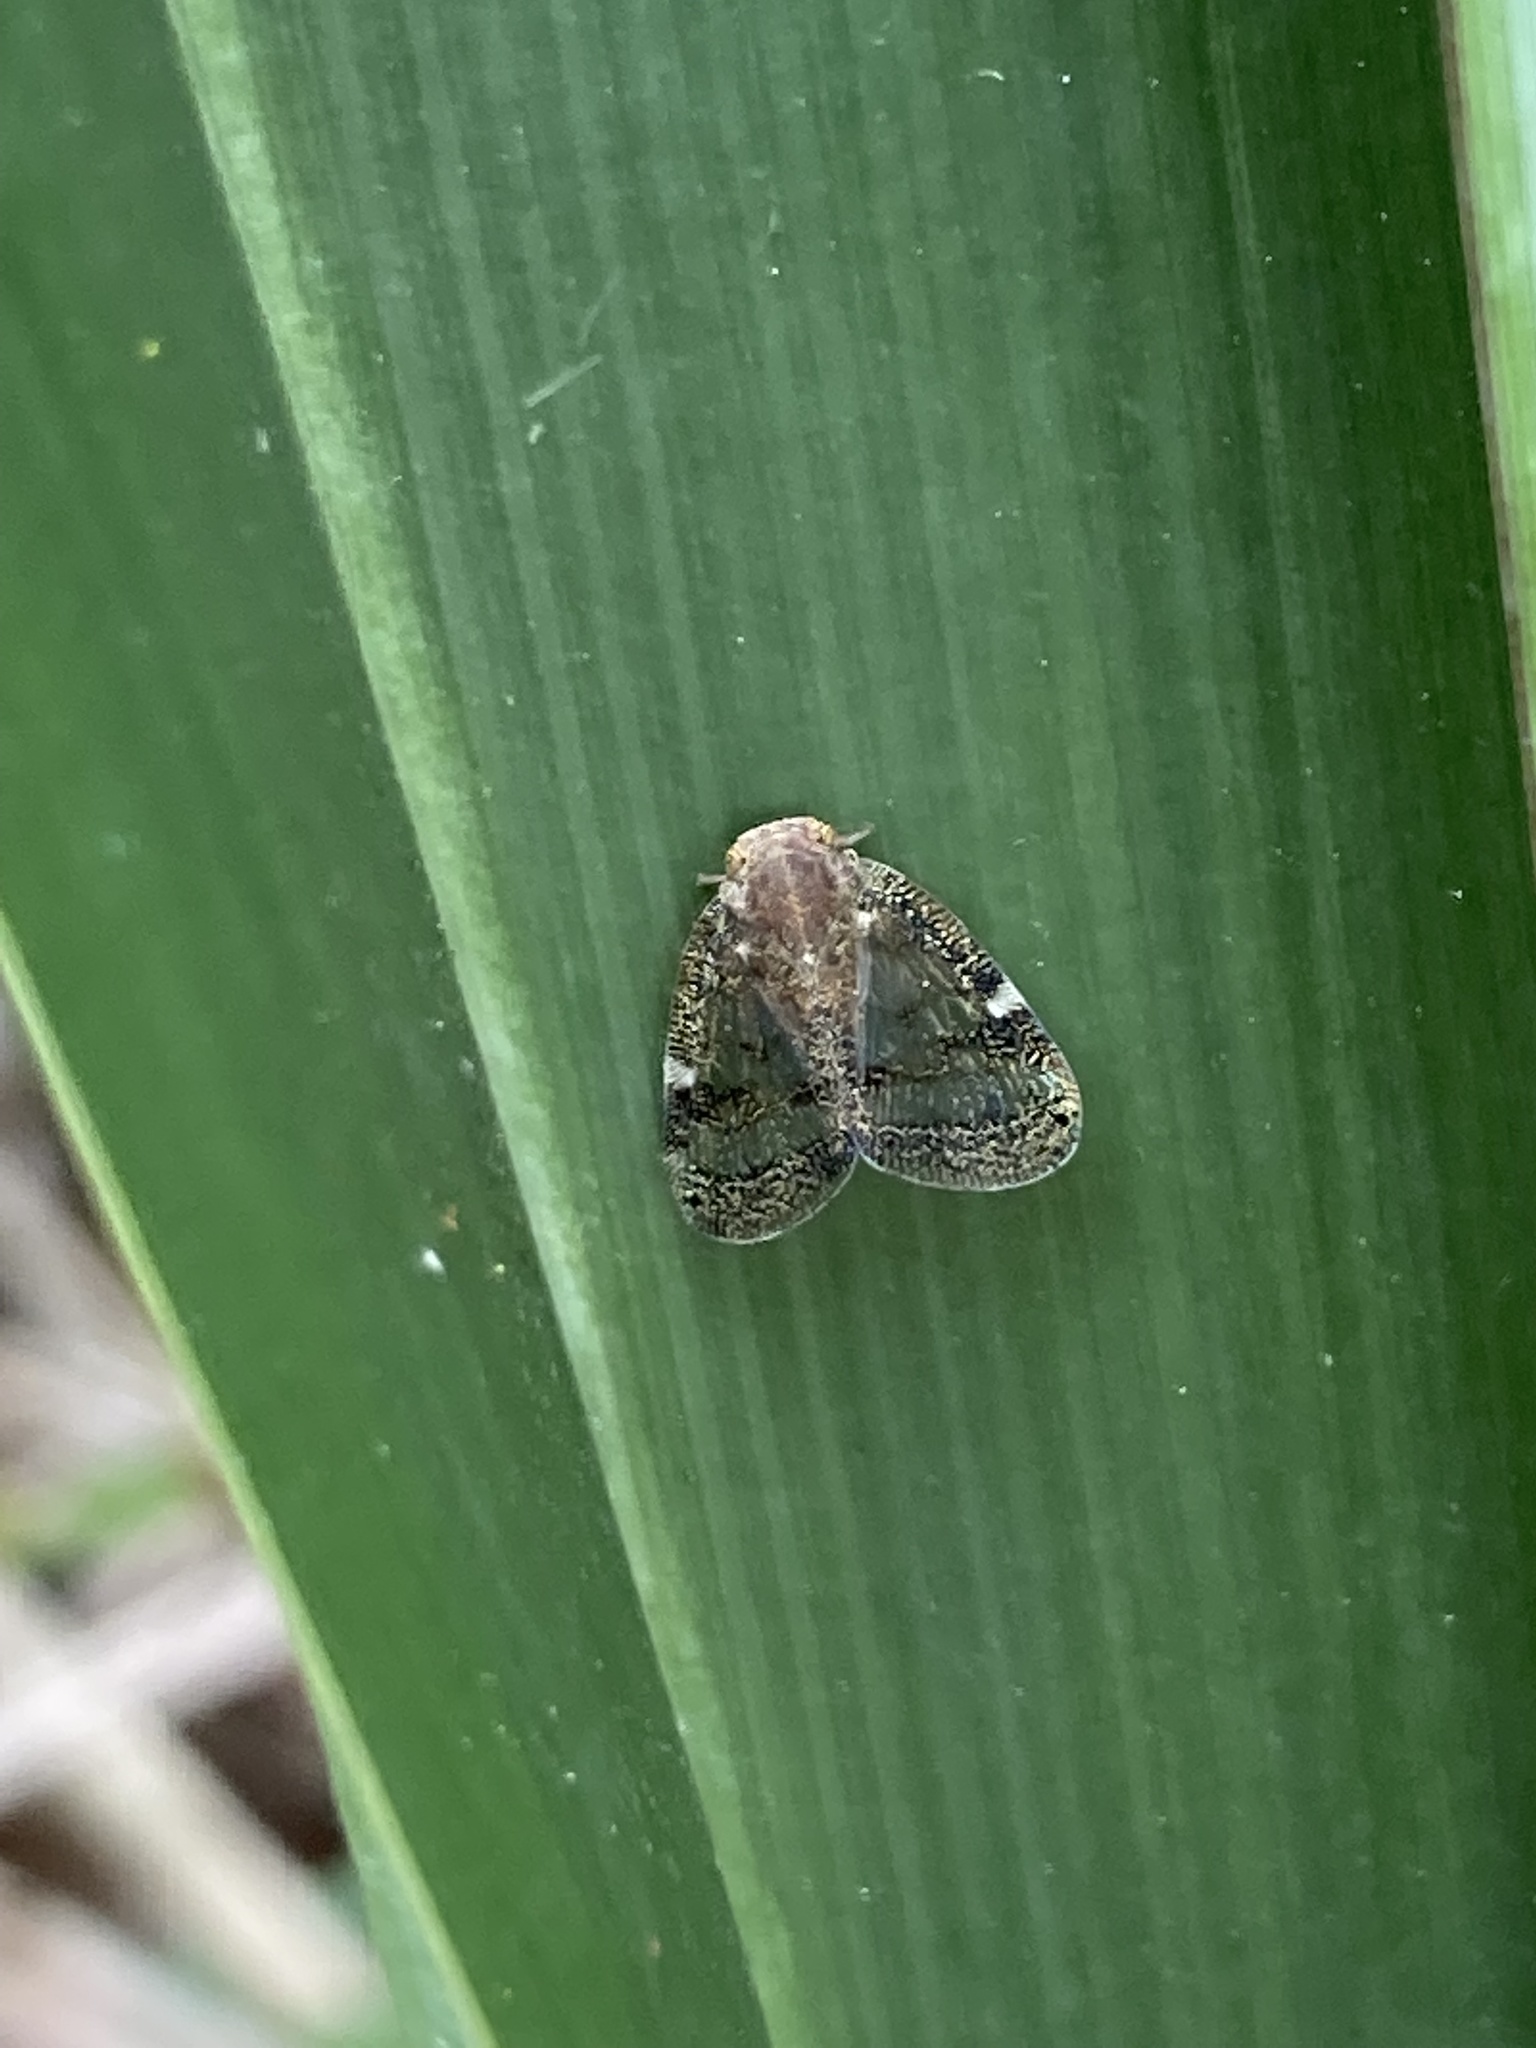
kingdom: Animalia
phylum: Arthropoda
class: Insecta
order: Hemiptera
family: Ricaniidae
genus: Scolypopa
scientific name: Scolypopa australis
